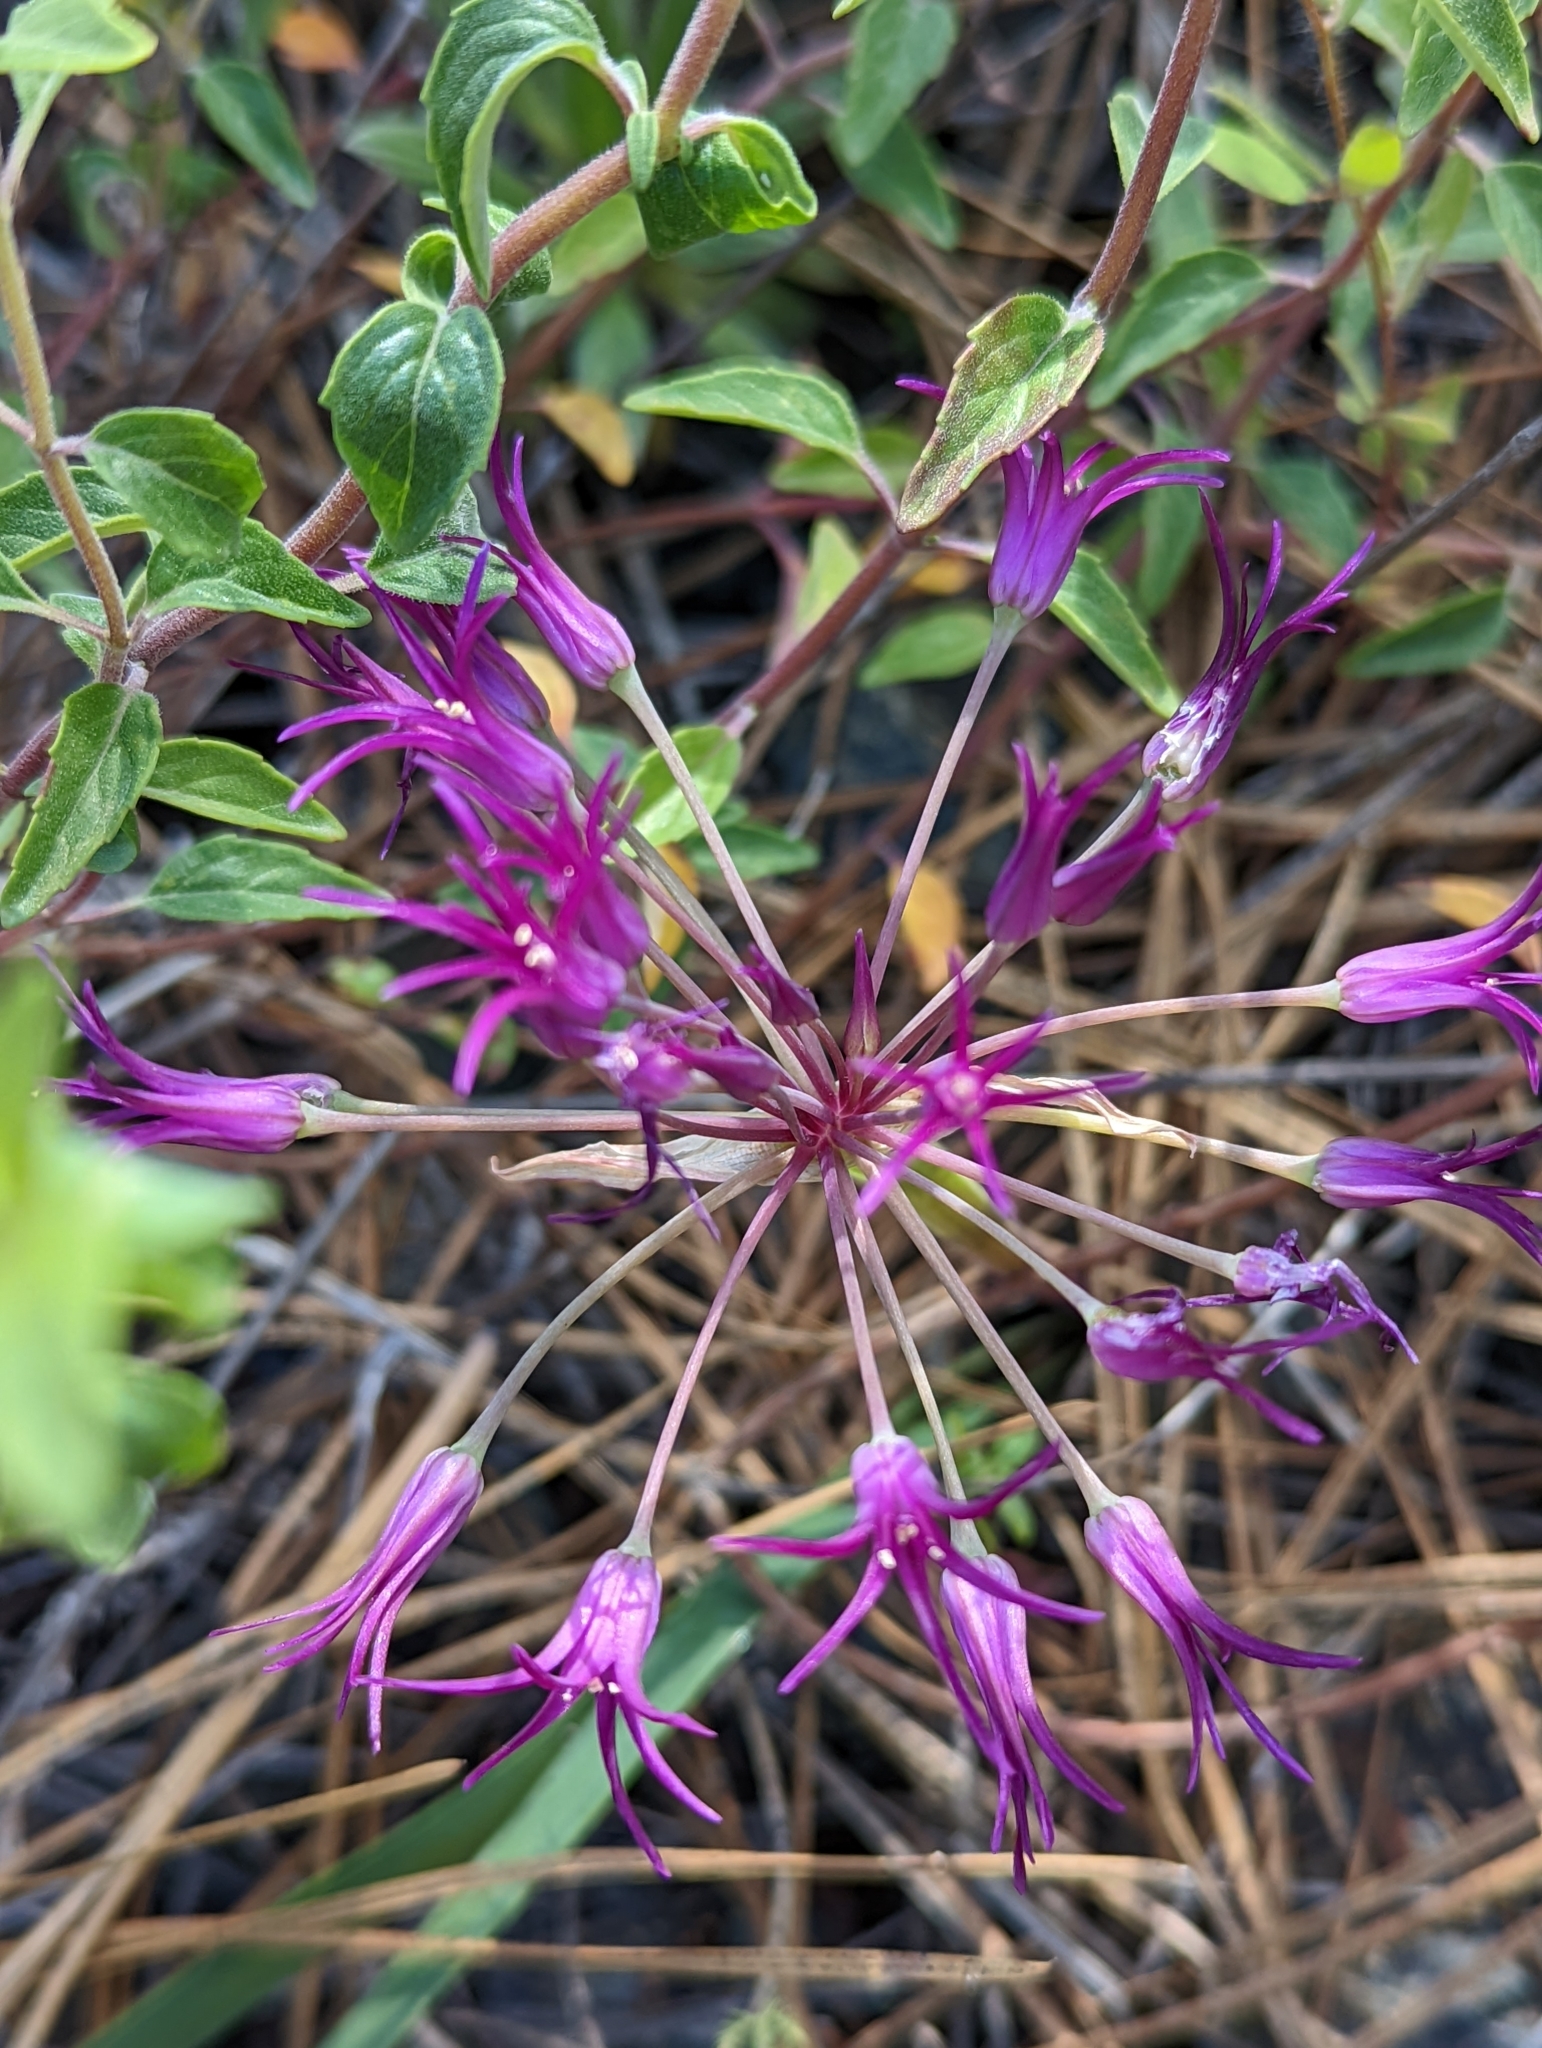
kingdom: Plantae
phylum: Tracheophyta
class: Liliopsida
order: Asparagales
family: Amaryllidaceae
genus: Allium
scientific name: Allium falcifolium
